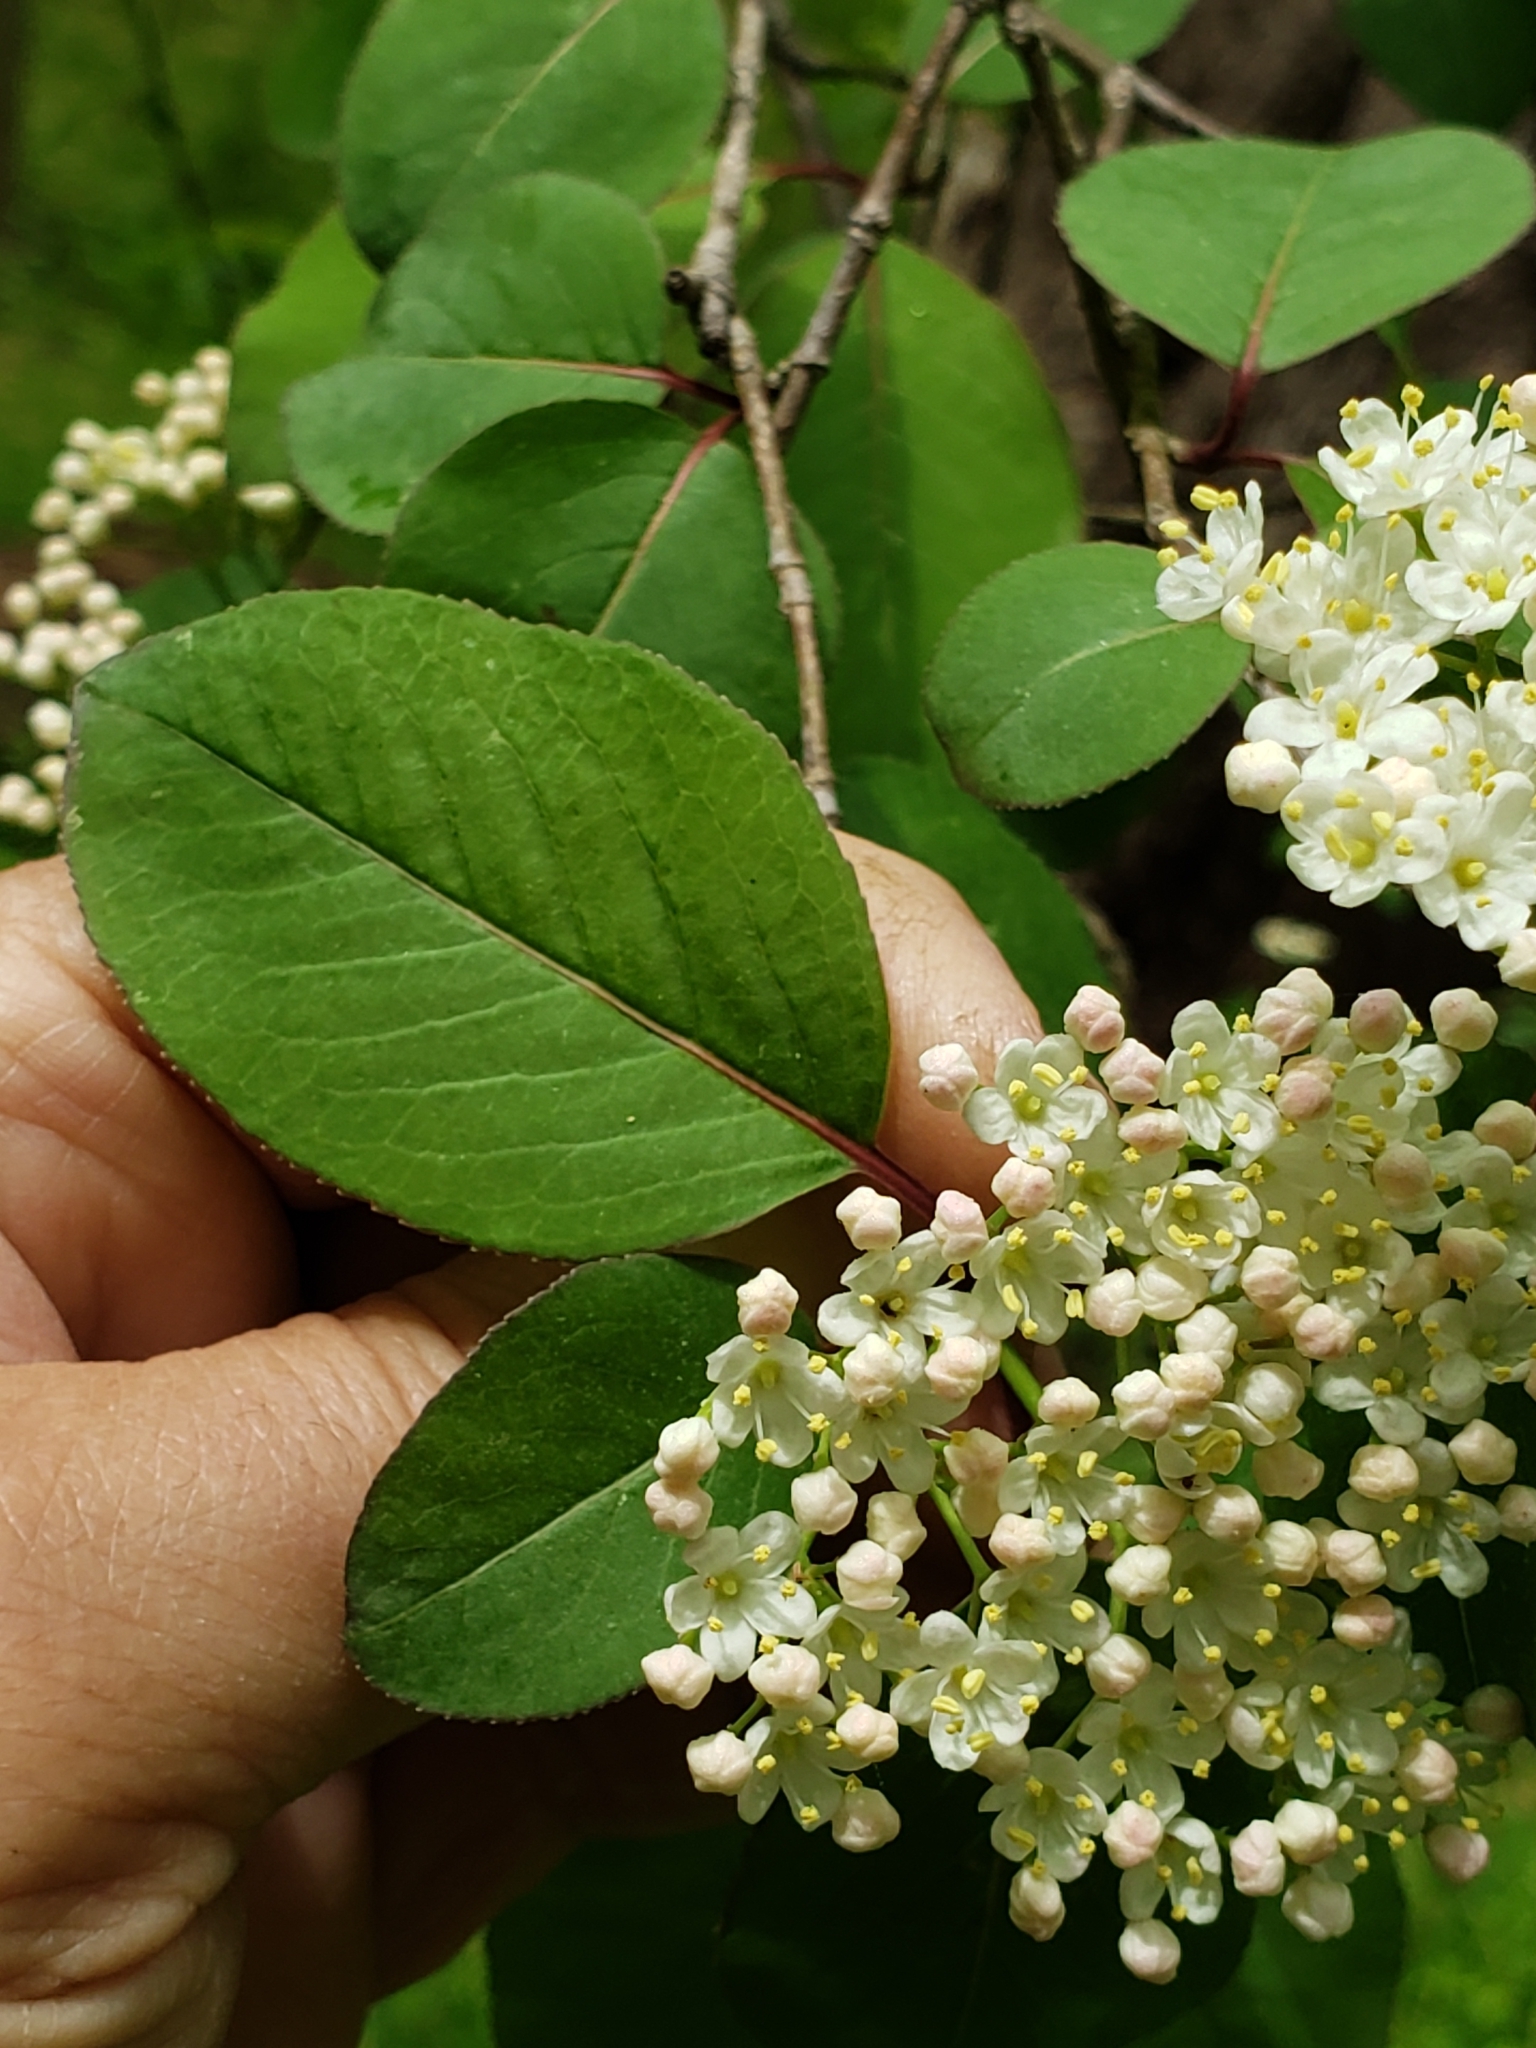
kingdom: Plantae
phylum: Tracheophyta
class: Magnoliopsida
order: Dipsacales
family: Viburnaceae
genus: Viburnum
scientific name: Viburnum prunifolium
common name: Black haw
